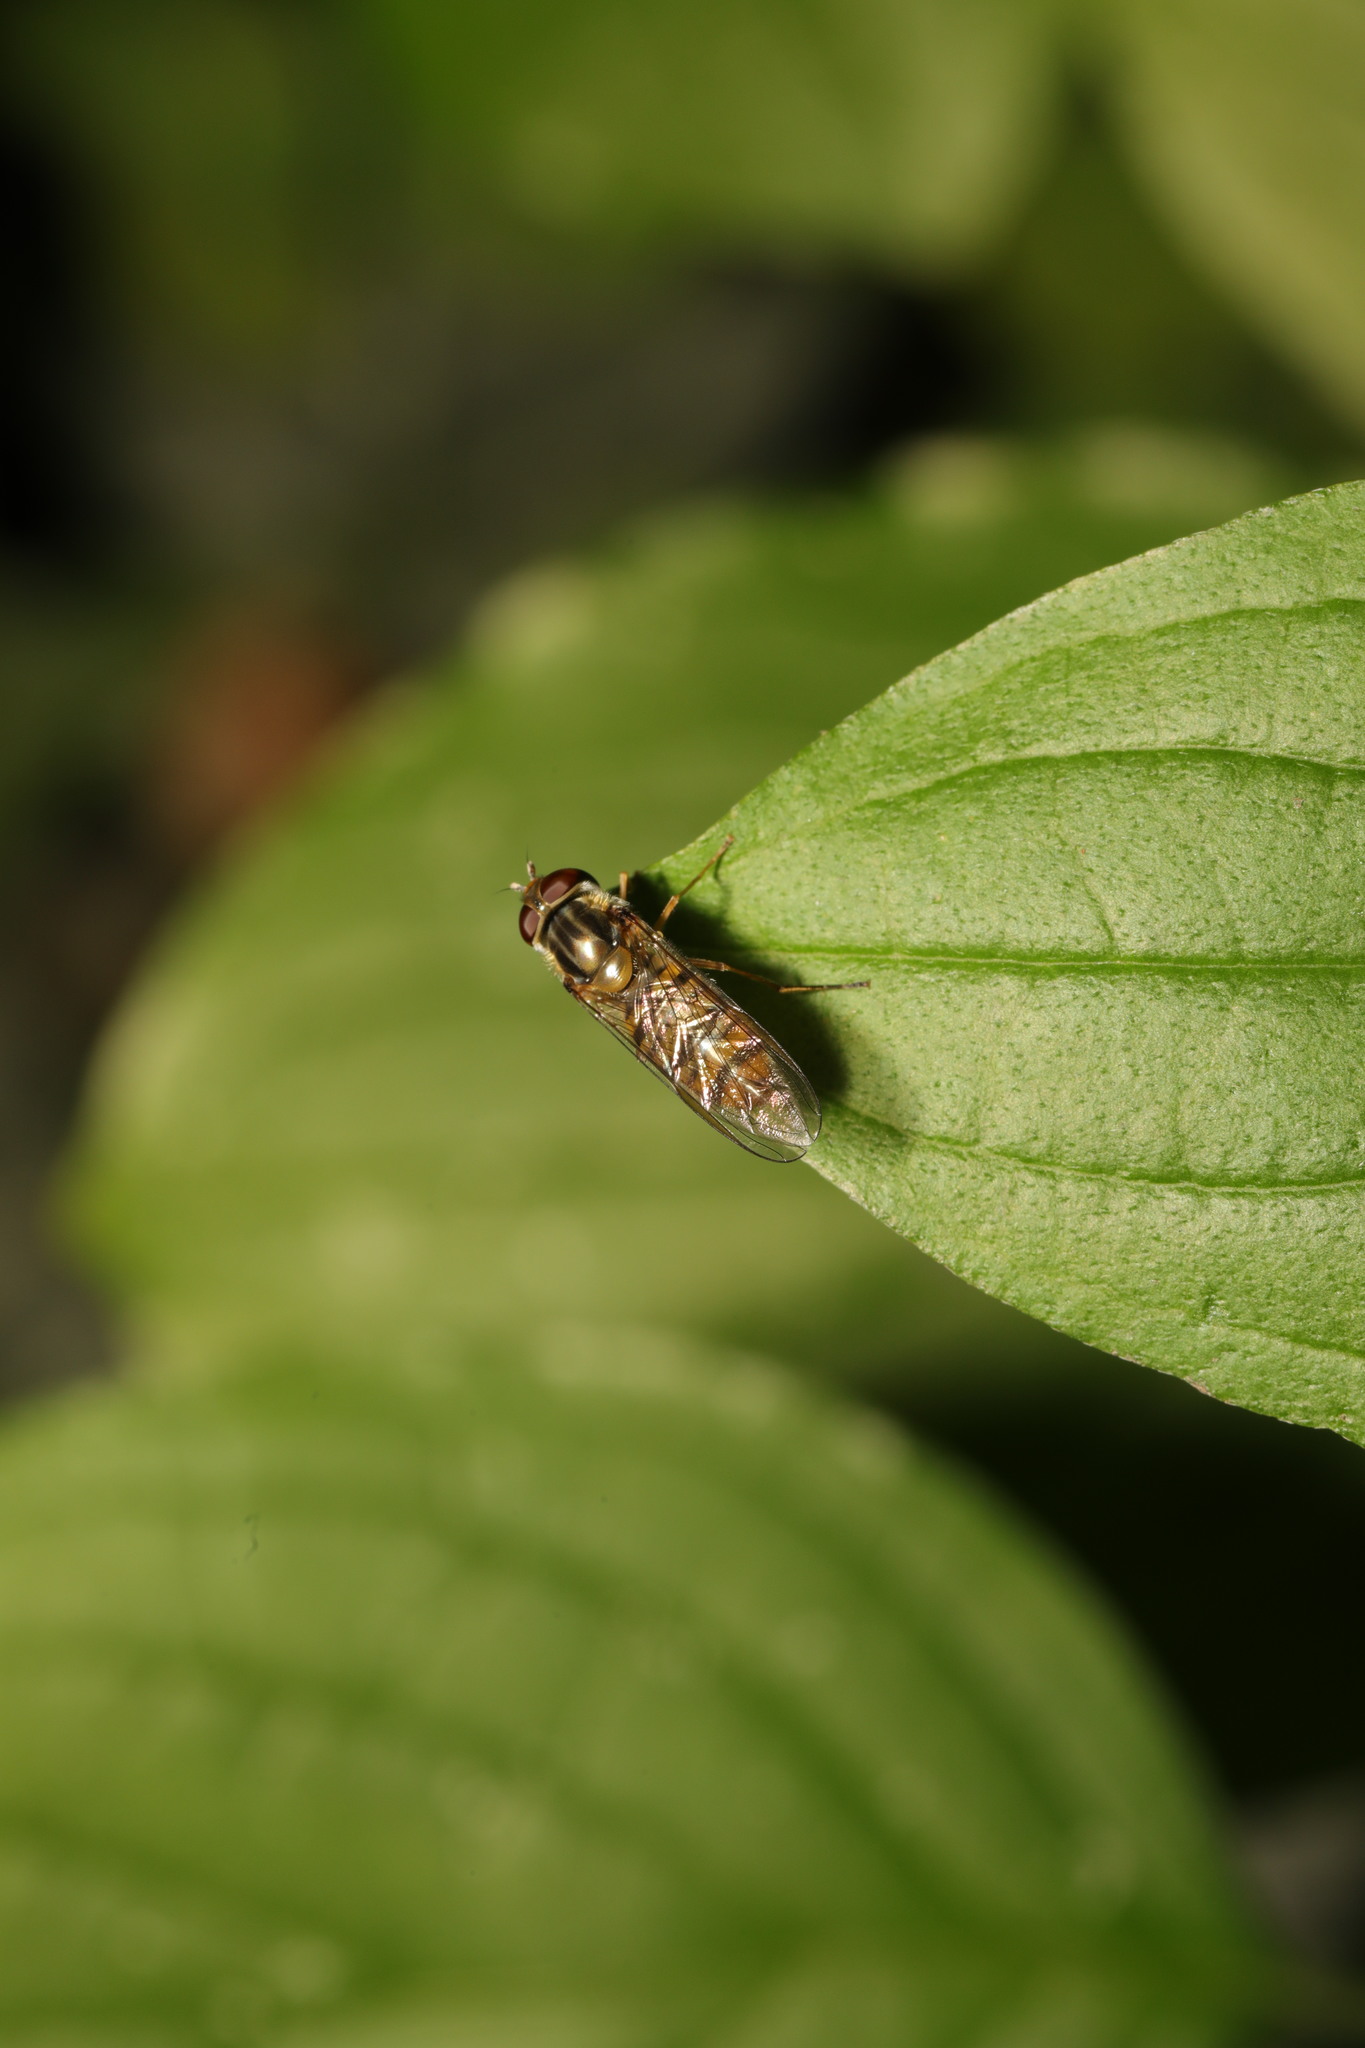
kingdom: Animalia
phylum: Arthropoda
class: Insecta
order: Diptera
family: Syrphidae
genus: Episyrphus
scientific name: Episyrphus balteatus
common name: Marmalade hoverfly
